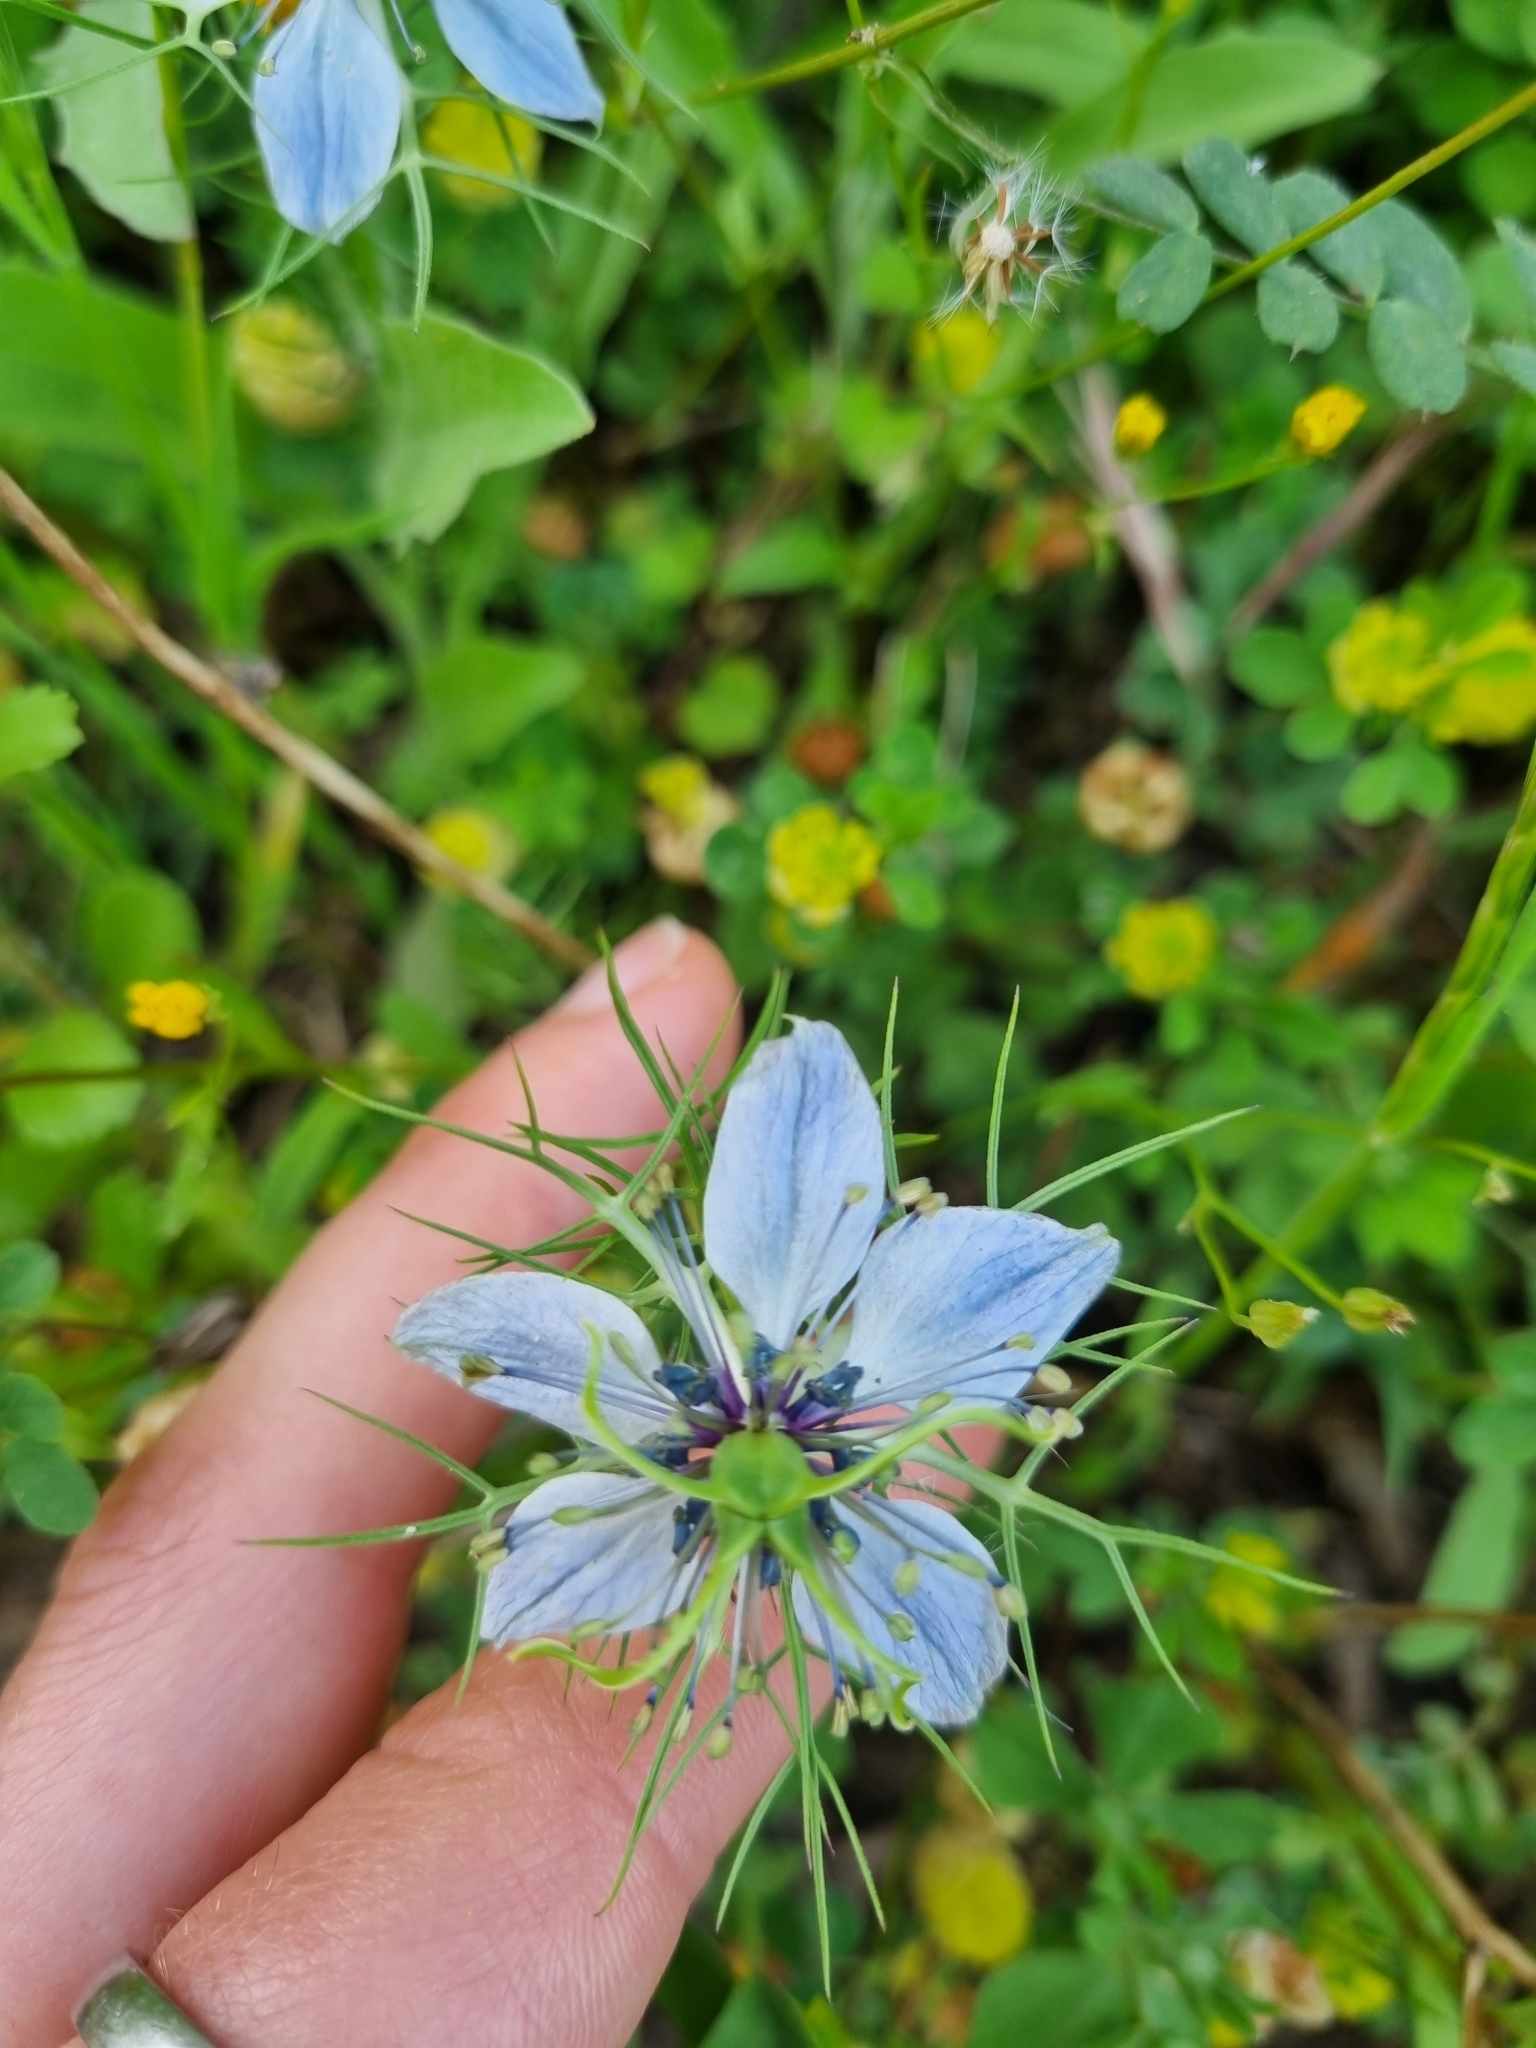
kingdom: Plantae
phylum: Tracheophyta
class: Magnoliopsida
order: Ranunculales
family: Ranunculaceae
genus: Nigella
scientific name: Nigella damascena
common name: Love-in-a-mist
